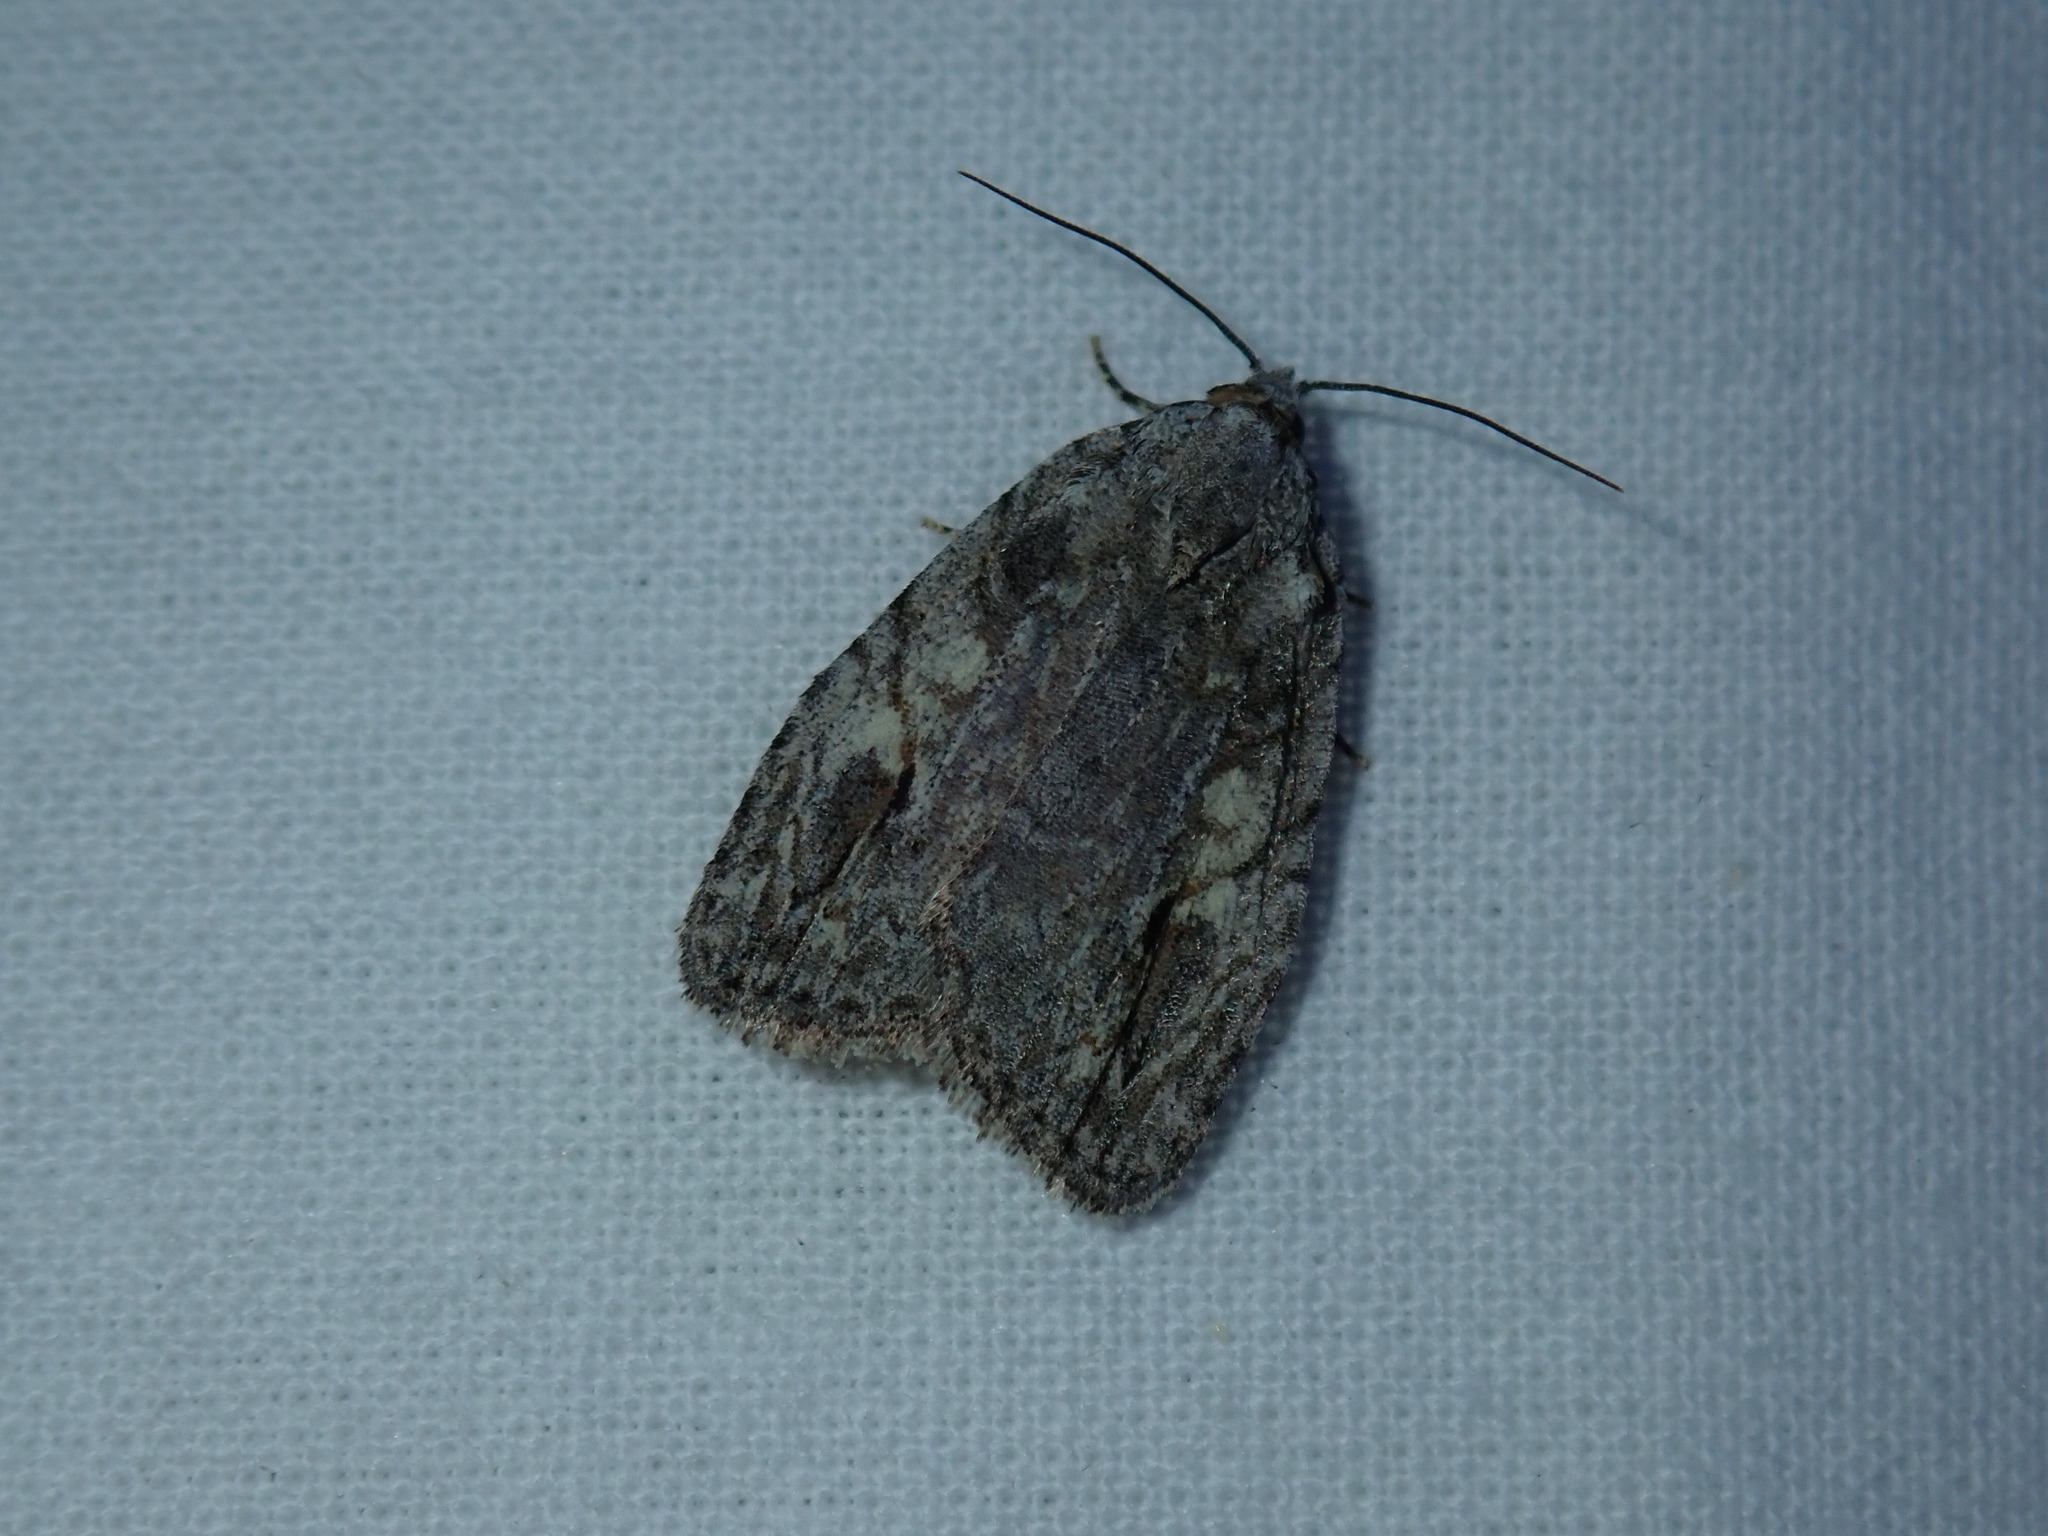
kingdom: Animalia
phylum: Arthropoda
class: Insecta
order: Lepidoptera
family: Noctuidae
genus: Balsa
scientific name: Balsa labecula
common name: White-blotched balsa moth
